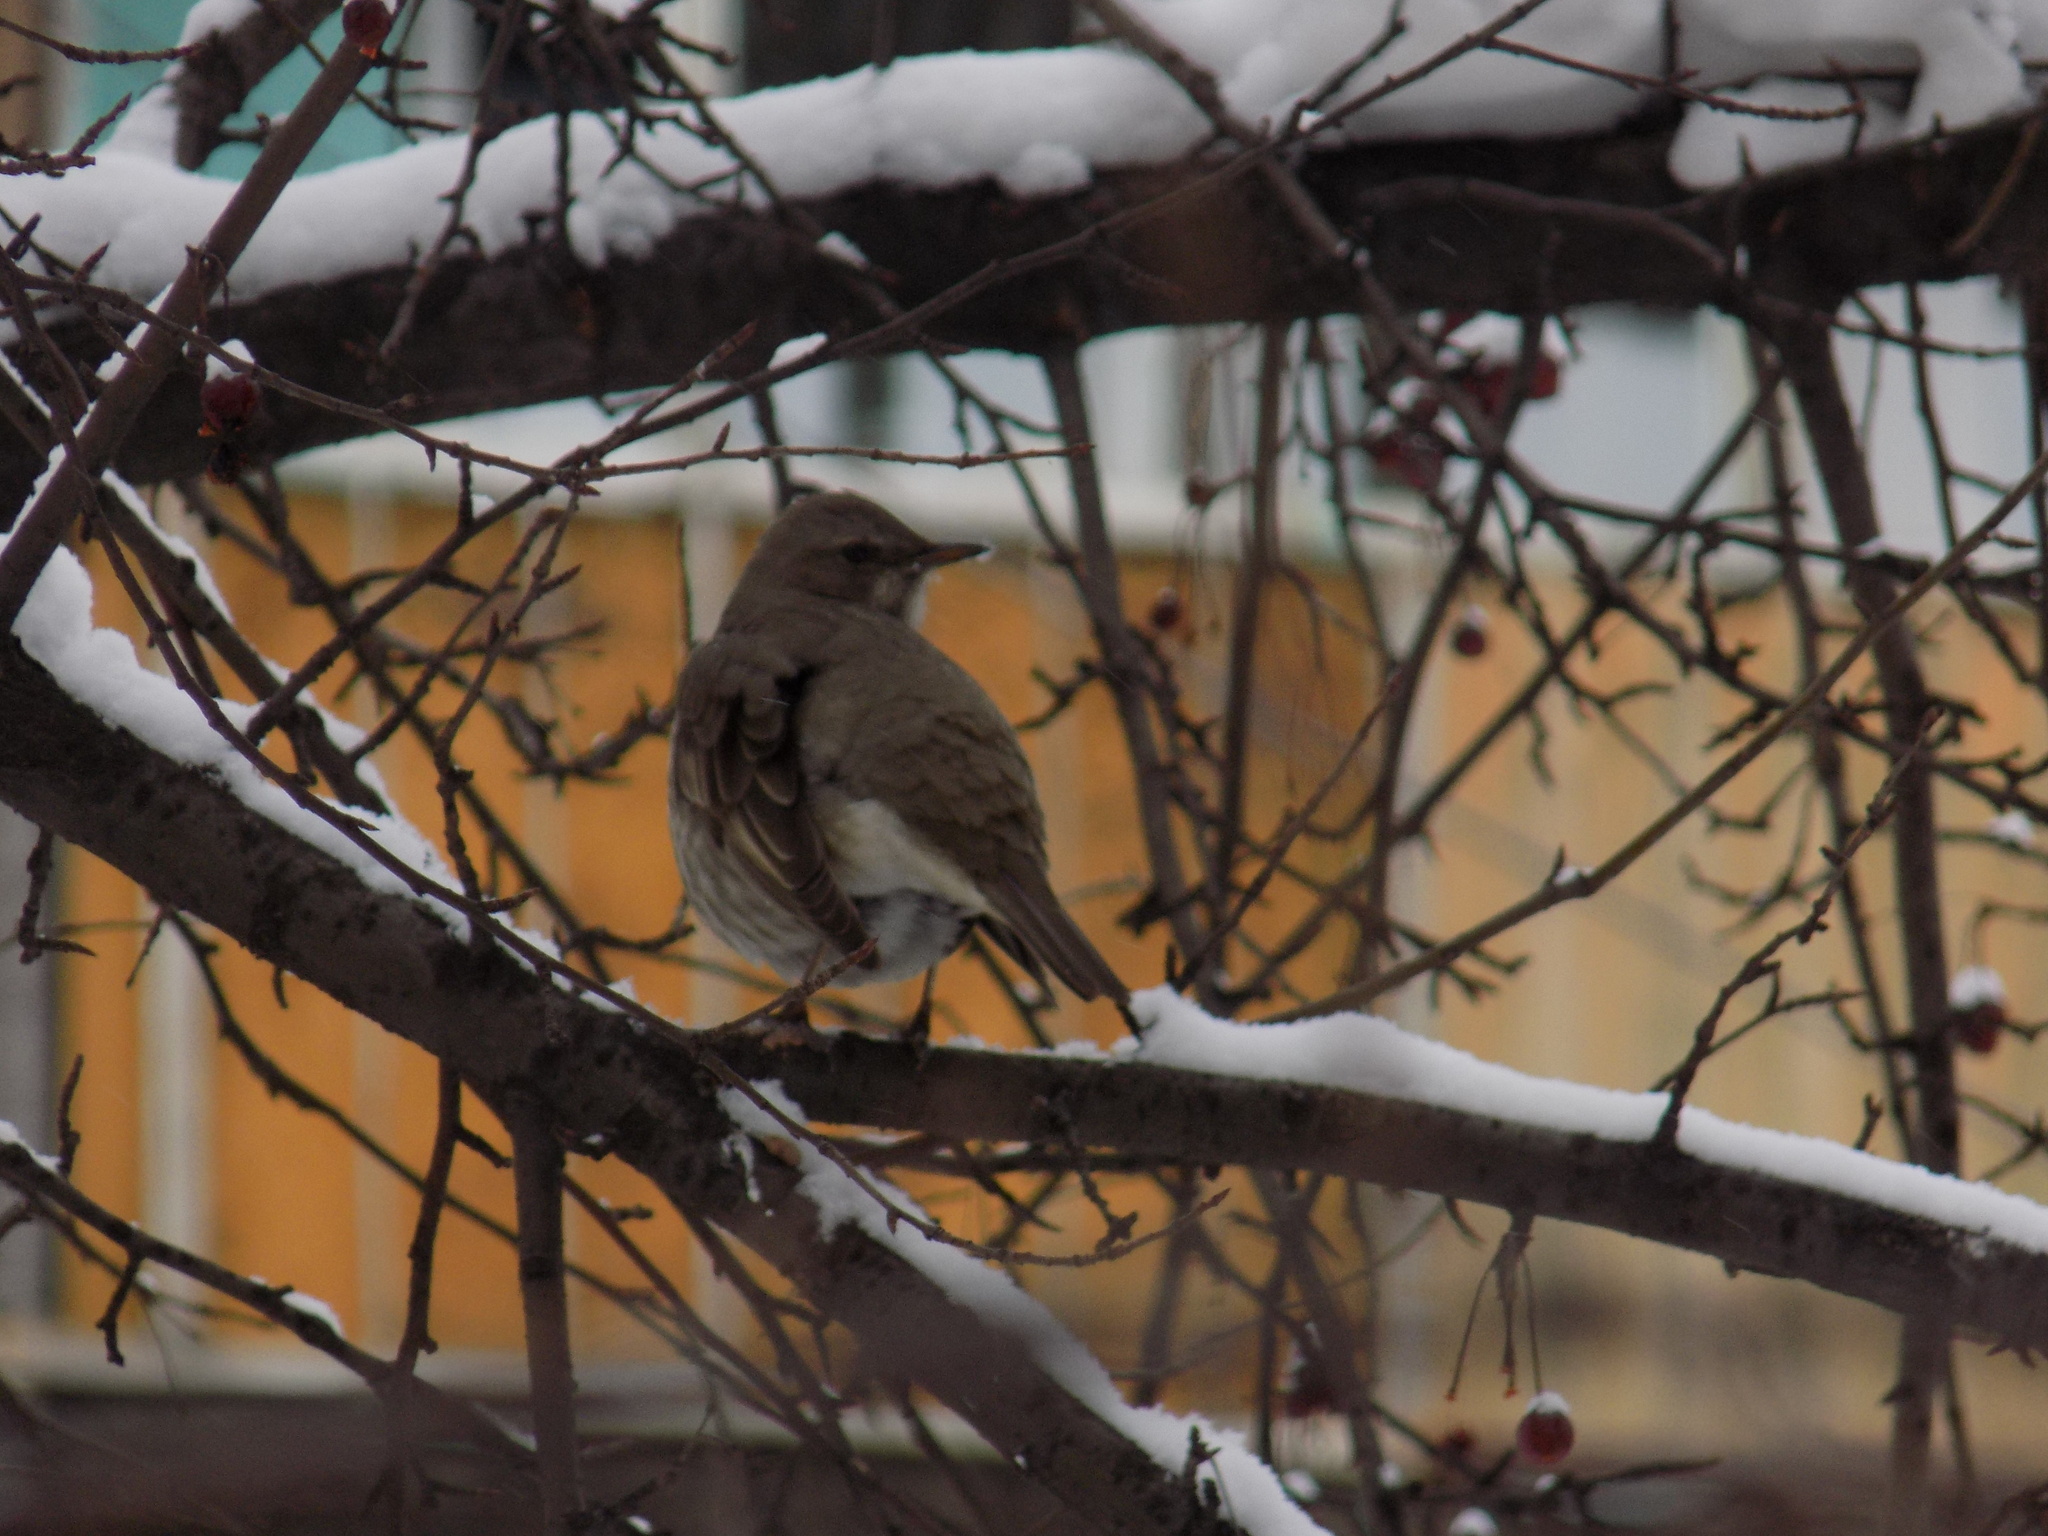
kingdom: Animalia
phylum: Chordata
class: Aves
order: Passeriformes
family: Turdidae
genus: Turdus
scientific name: Turdus atrogularis
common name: Black-throated thrush
